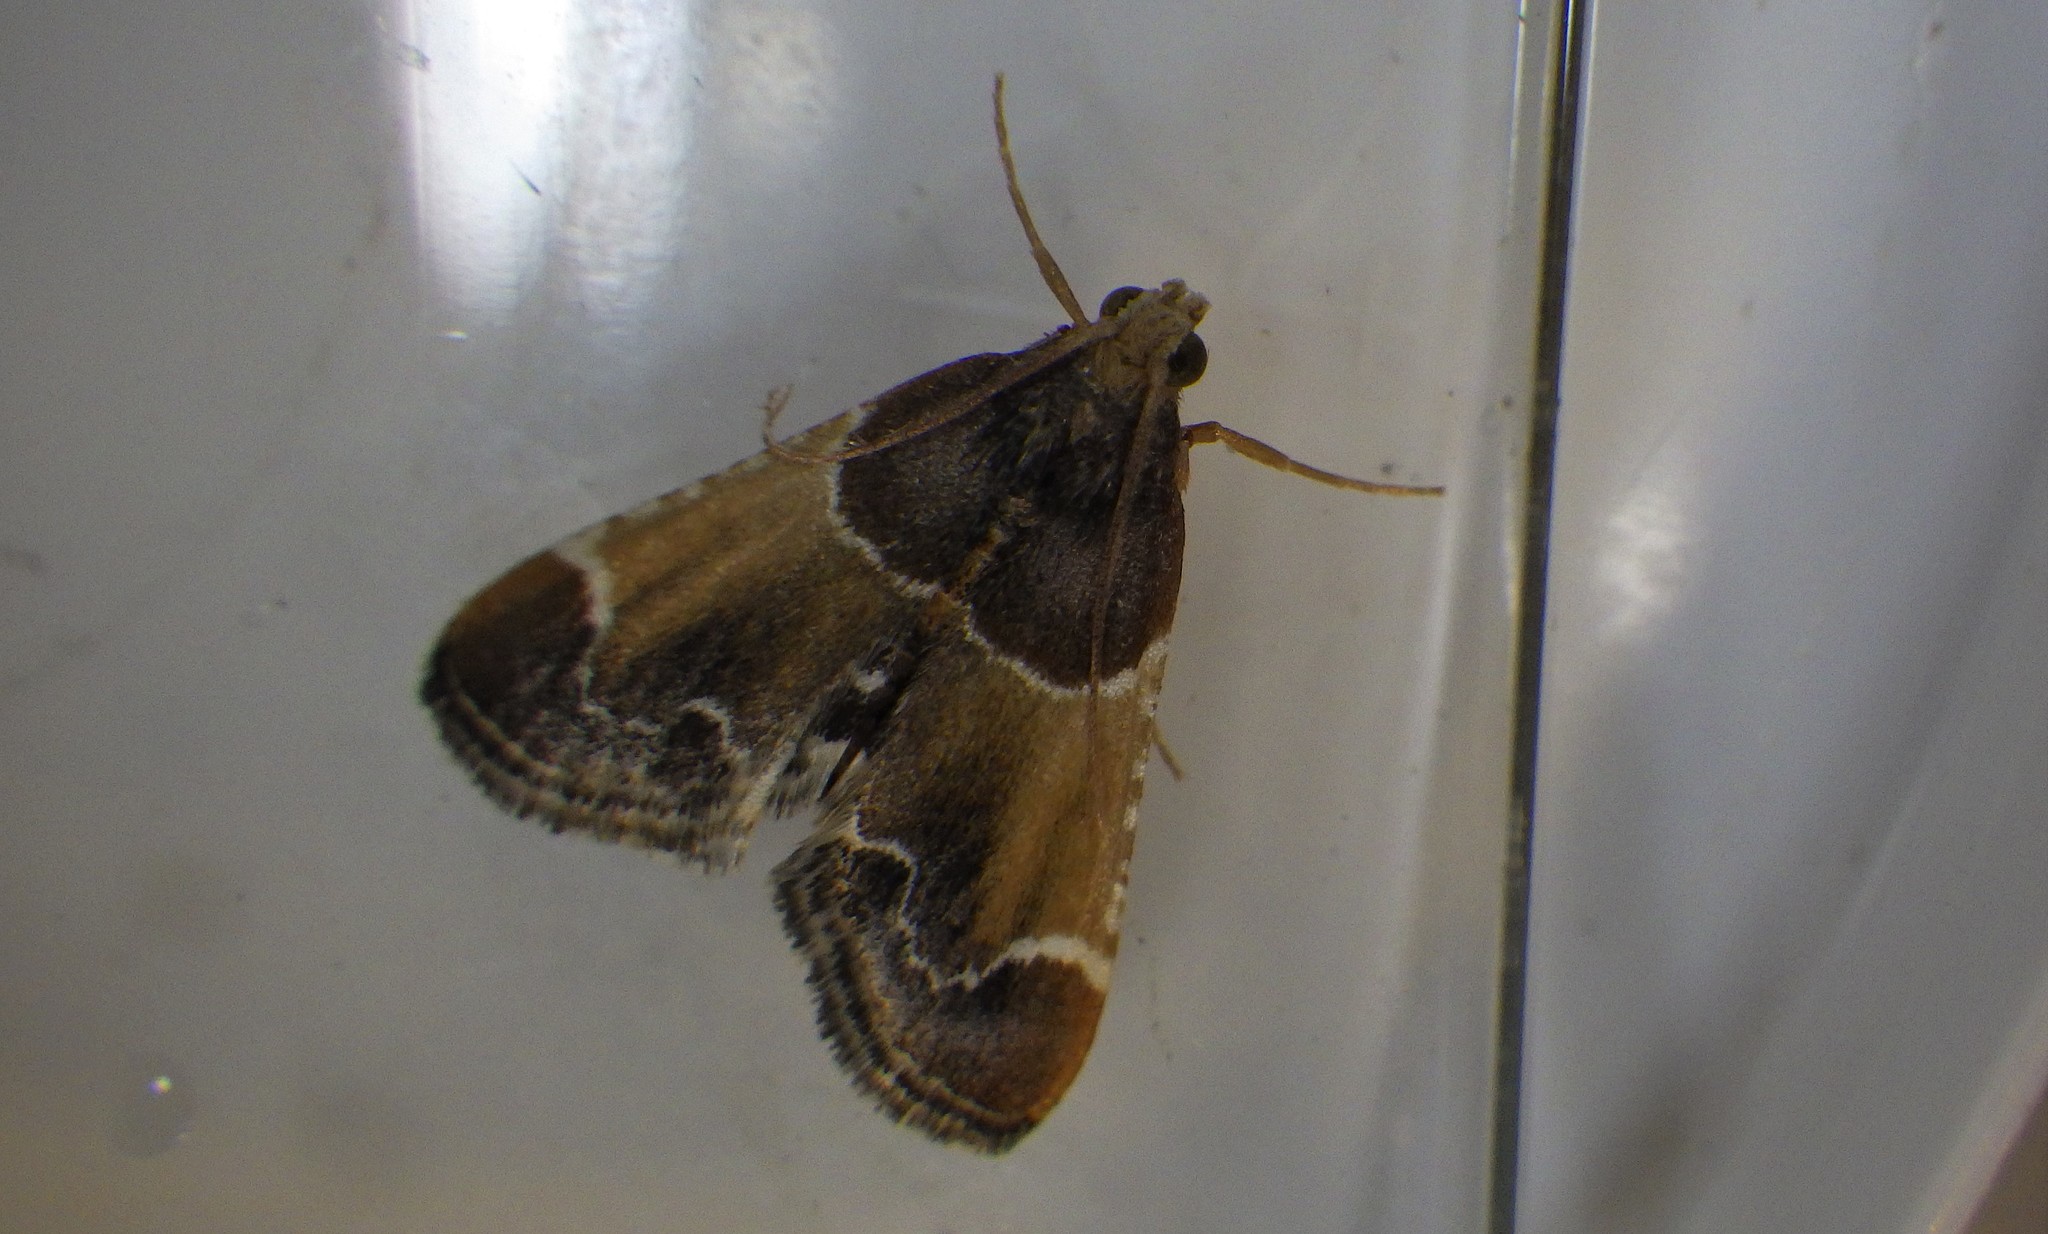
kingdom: Animalia
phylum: Arthropoda
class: Insecta
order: Lepidoptera
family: Pyralidae
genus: Pyralis
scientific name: Pyralis farinalis
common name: Meal moth
